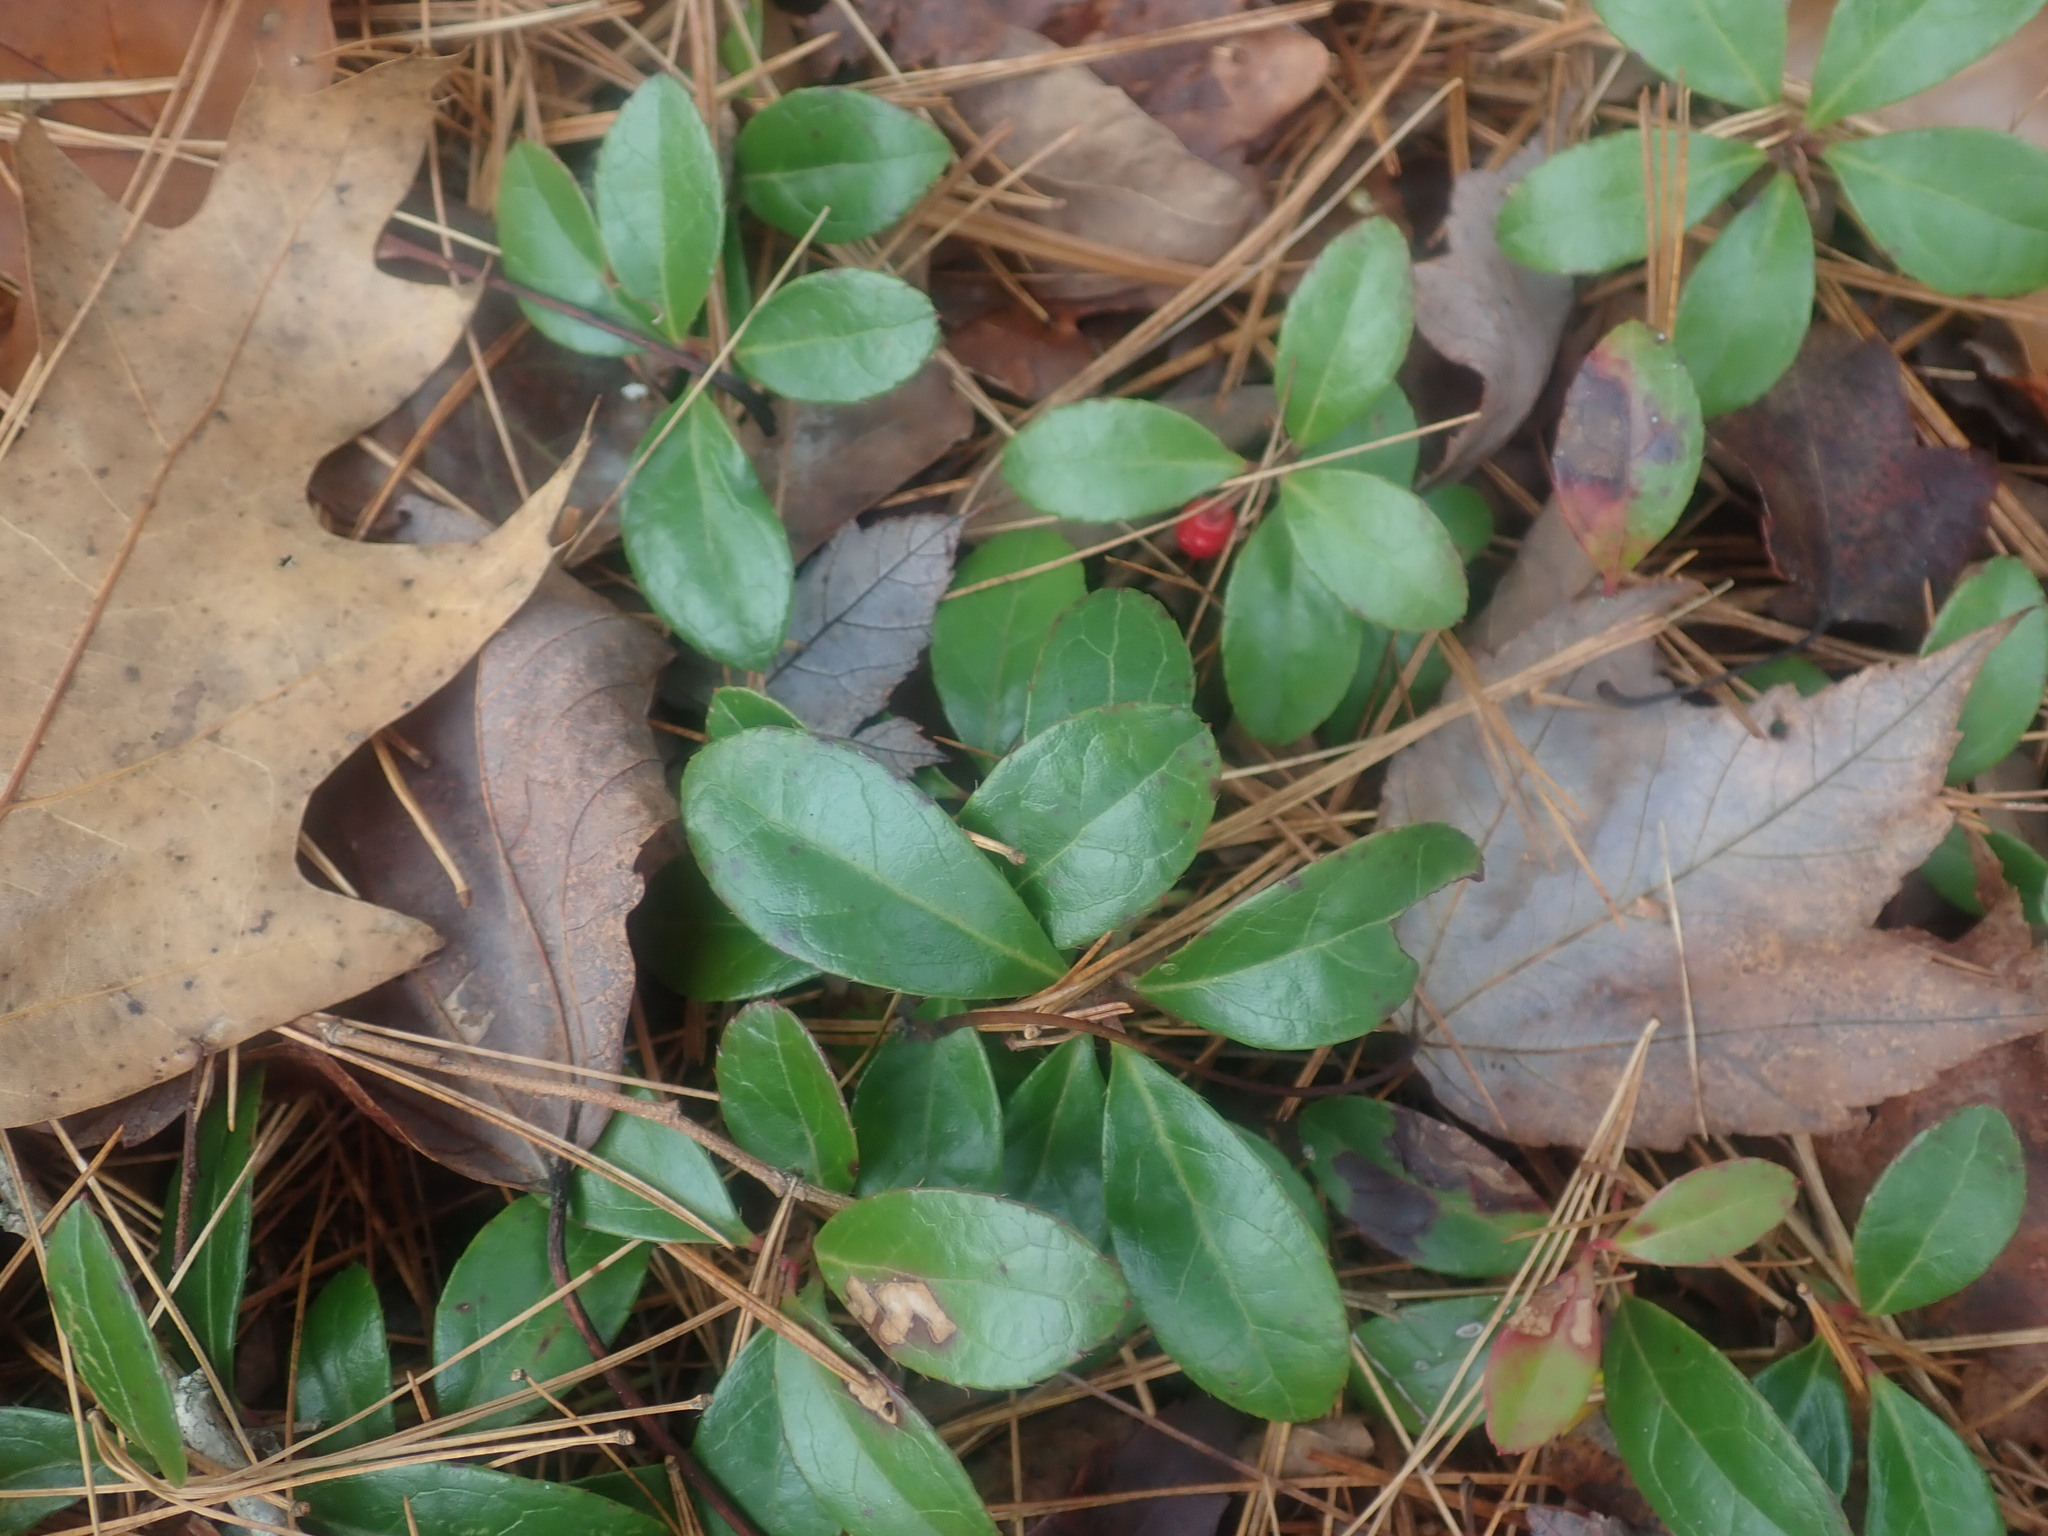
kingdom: Plantae
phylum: Tracheophyta
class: Magnoliopsida
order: Ericales
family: Ericaceae
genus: Gaultheria
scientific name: Gaultheria procumbens
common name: Checkerberry
